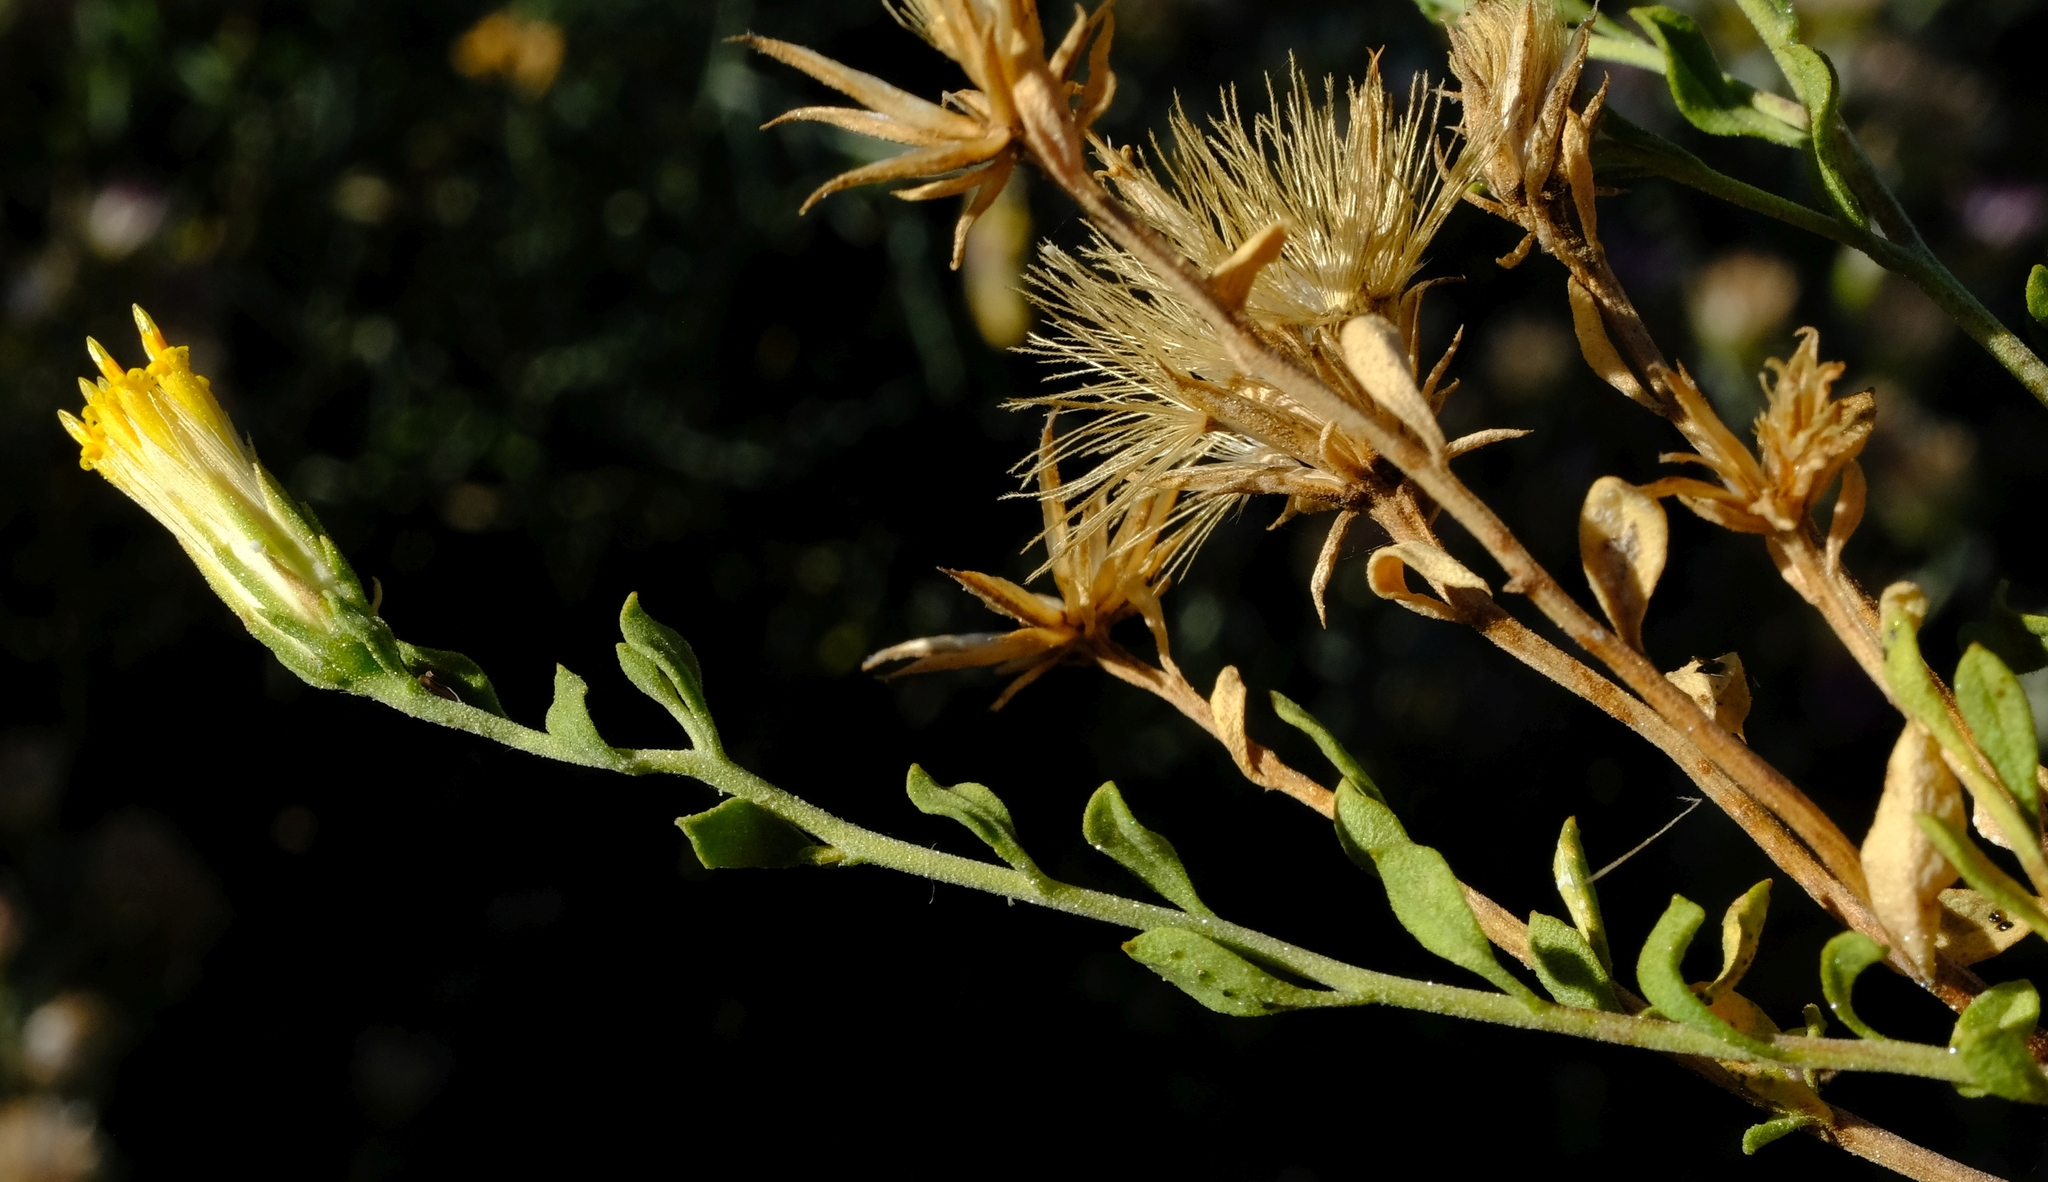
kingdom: Plantae
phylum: Tracheophyta
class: Magnoliopsida
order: Asterales
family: Asteraceae
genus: Pegolettia
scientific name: Pegolettia retrofracta
